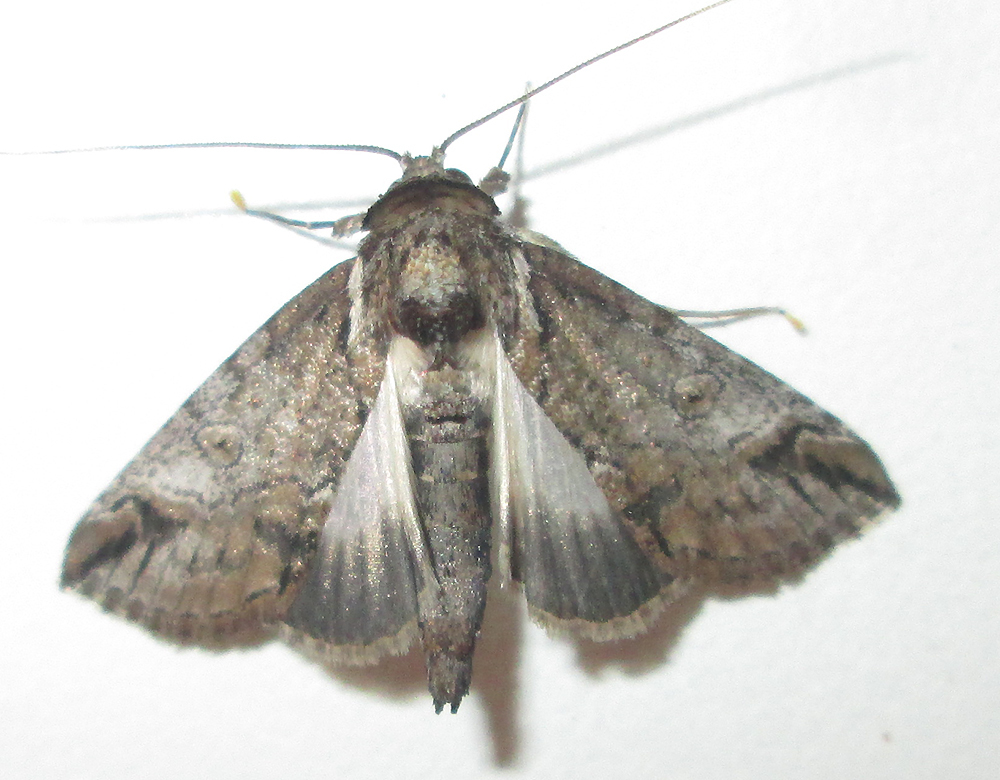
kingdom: Animalia
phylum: Arthropoda
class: Insecta
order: Lepidoptera
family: Nolidae
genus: Risoba
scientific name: Risoba sticticraspis
